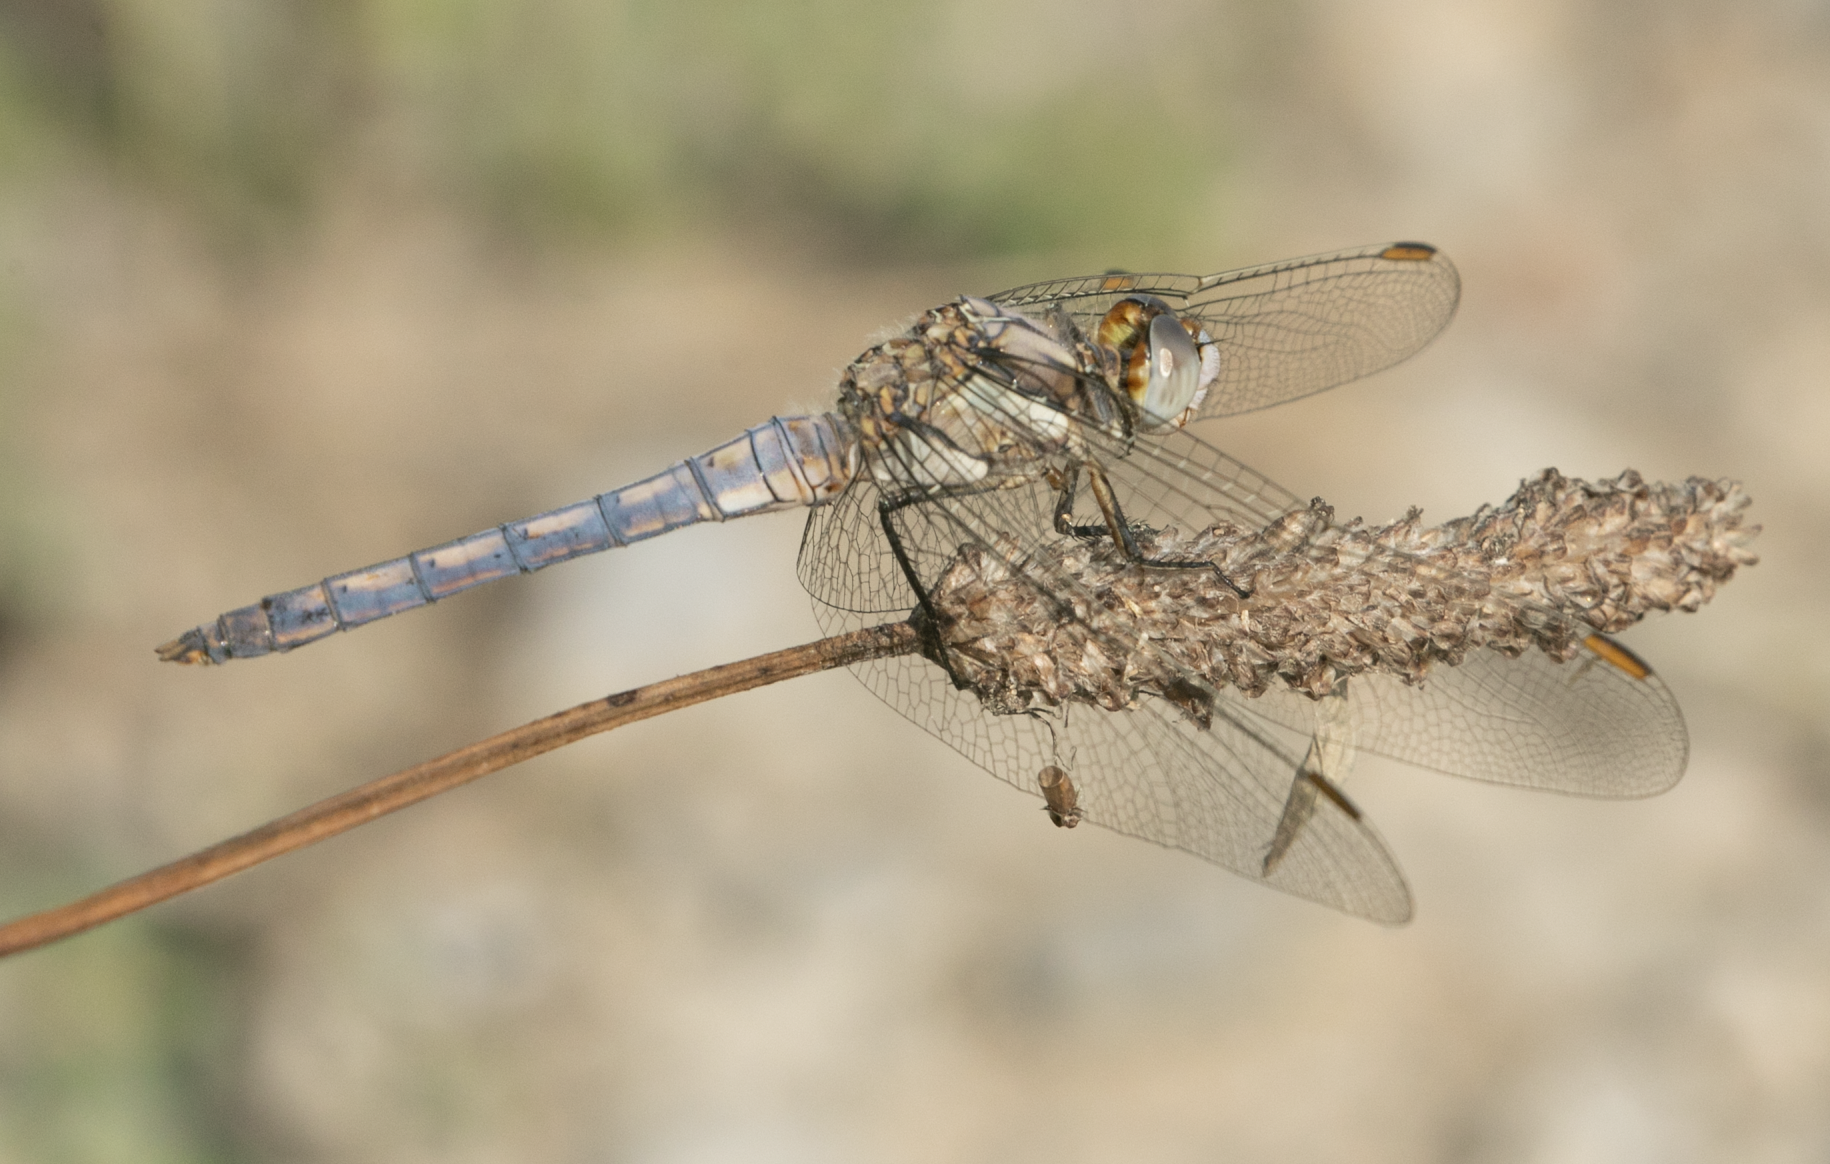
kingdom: Animalia
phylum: Arthropoda
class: Insecta
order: Odonata
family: Libellulidae
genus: Orthetrum
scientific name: Orthetrum brunneum
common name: Southern skimmer
